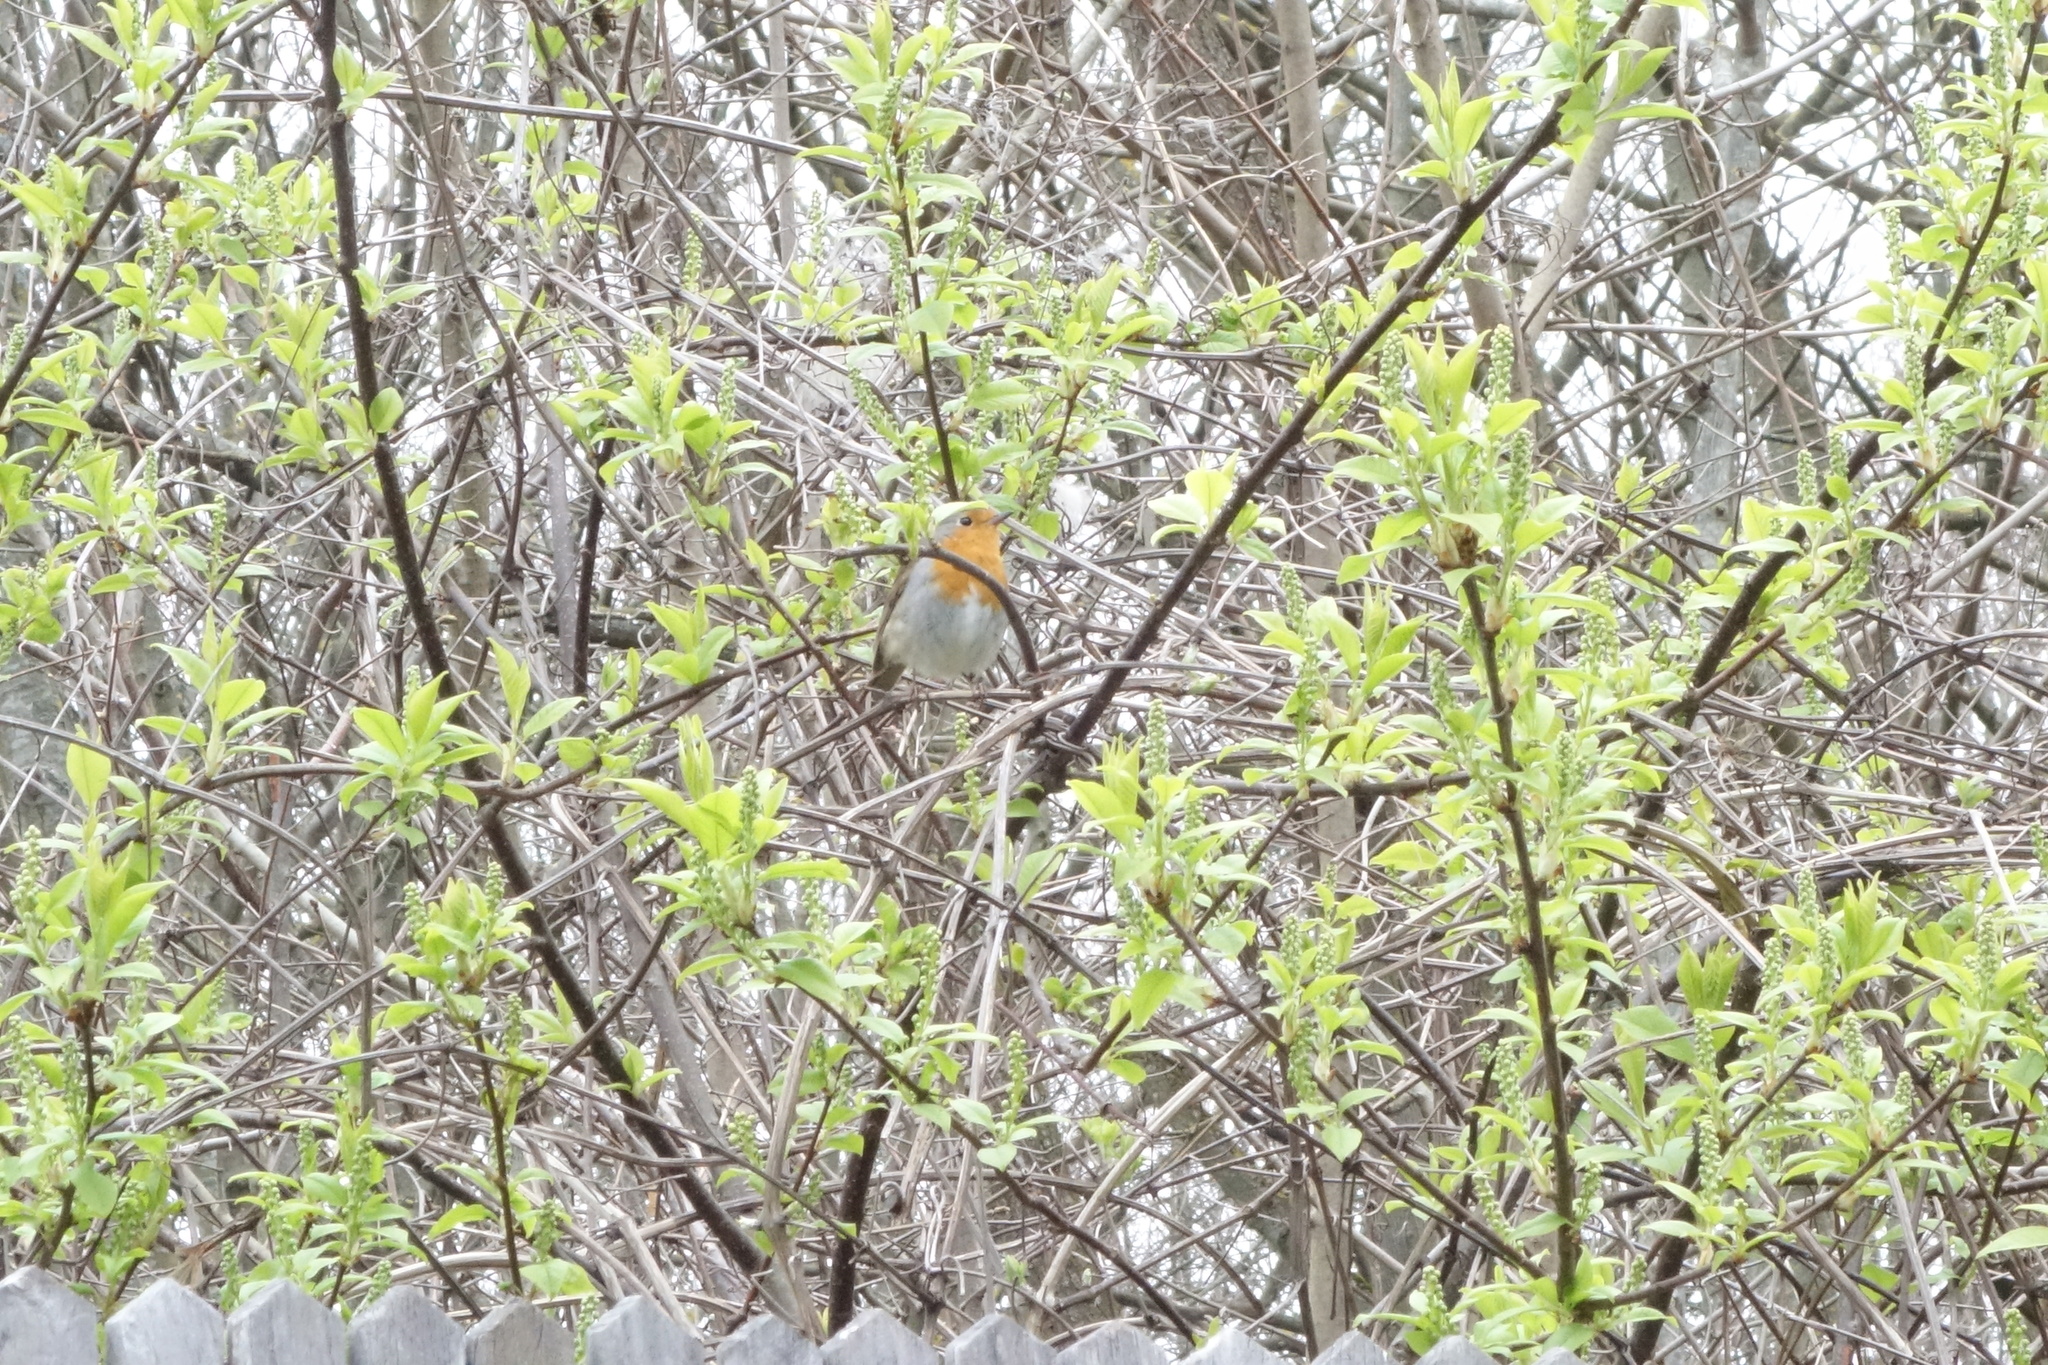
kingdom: Animalia
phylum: Chordata
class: Aves
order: Passeriformes
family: Muscicapidae
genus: Erithacus
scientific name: Erithacus rubecula
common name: European robin
